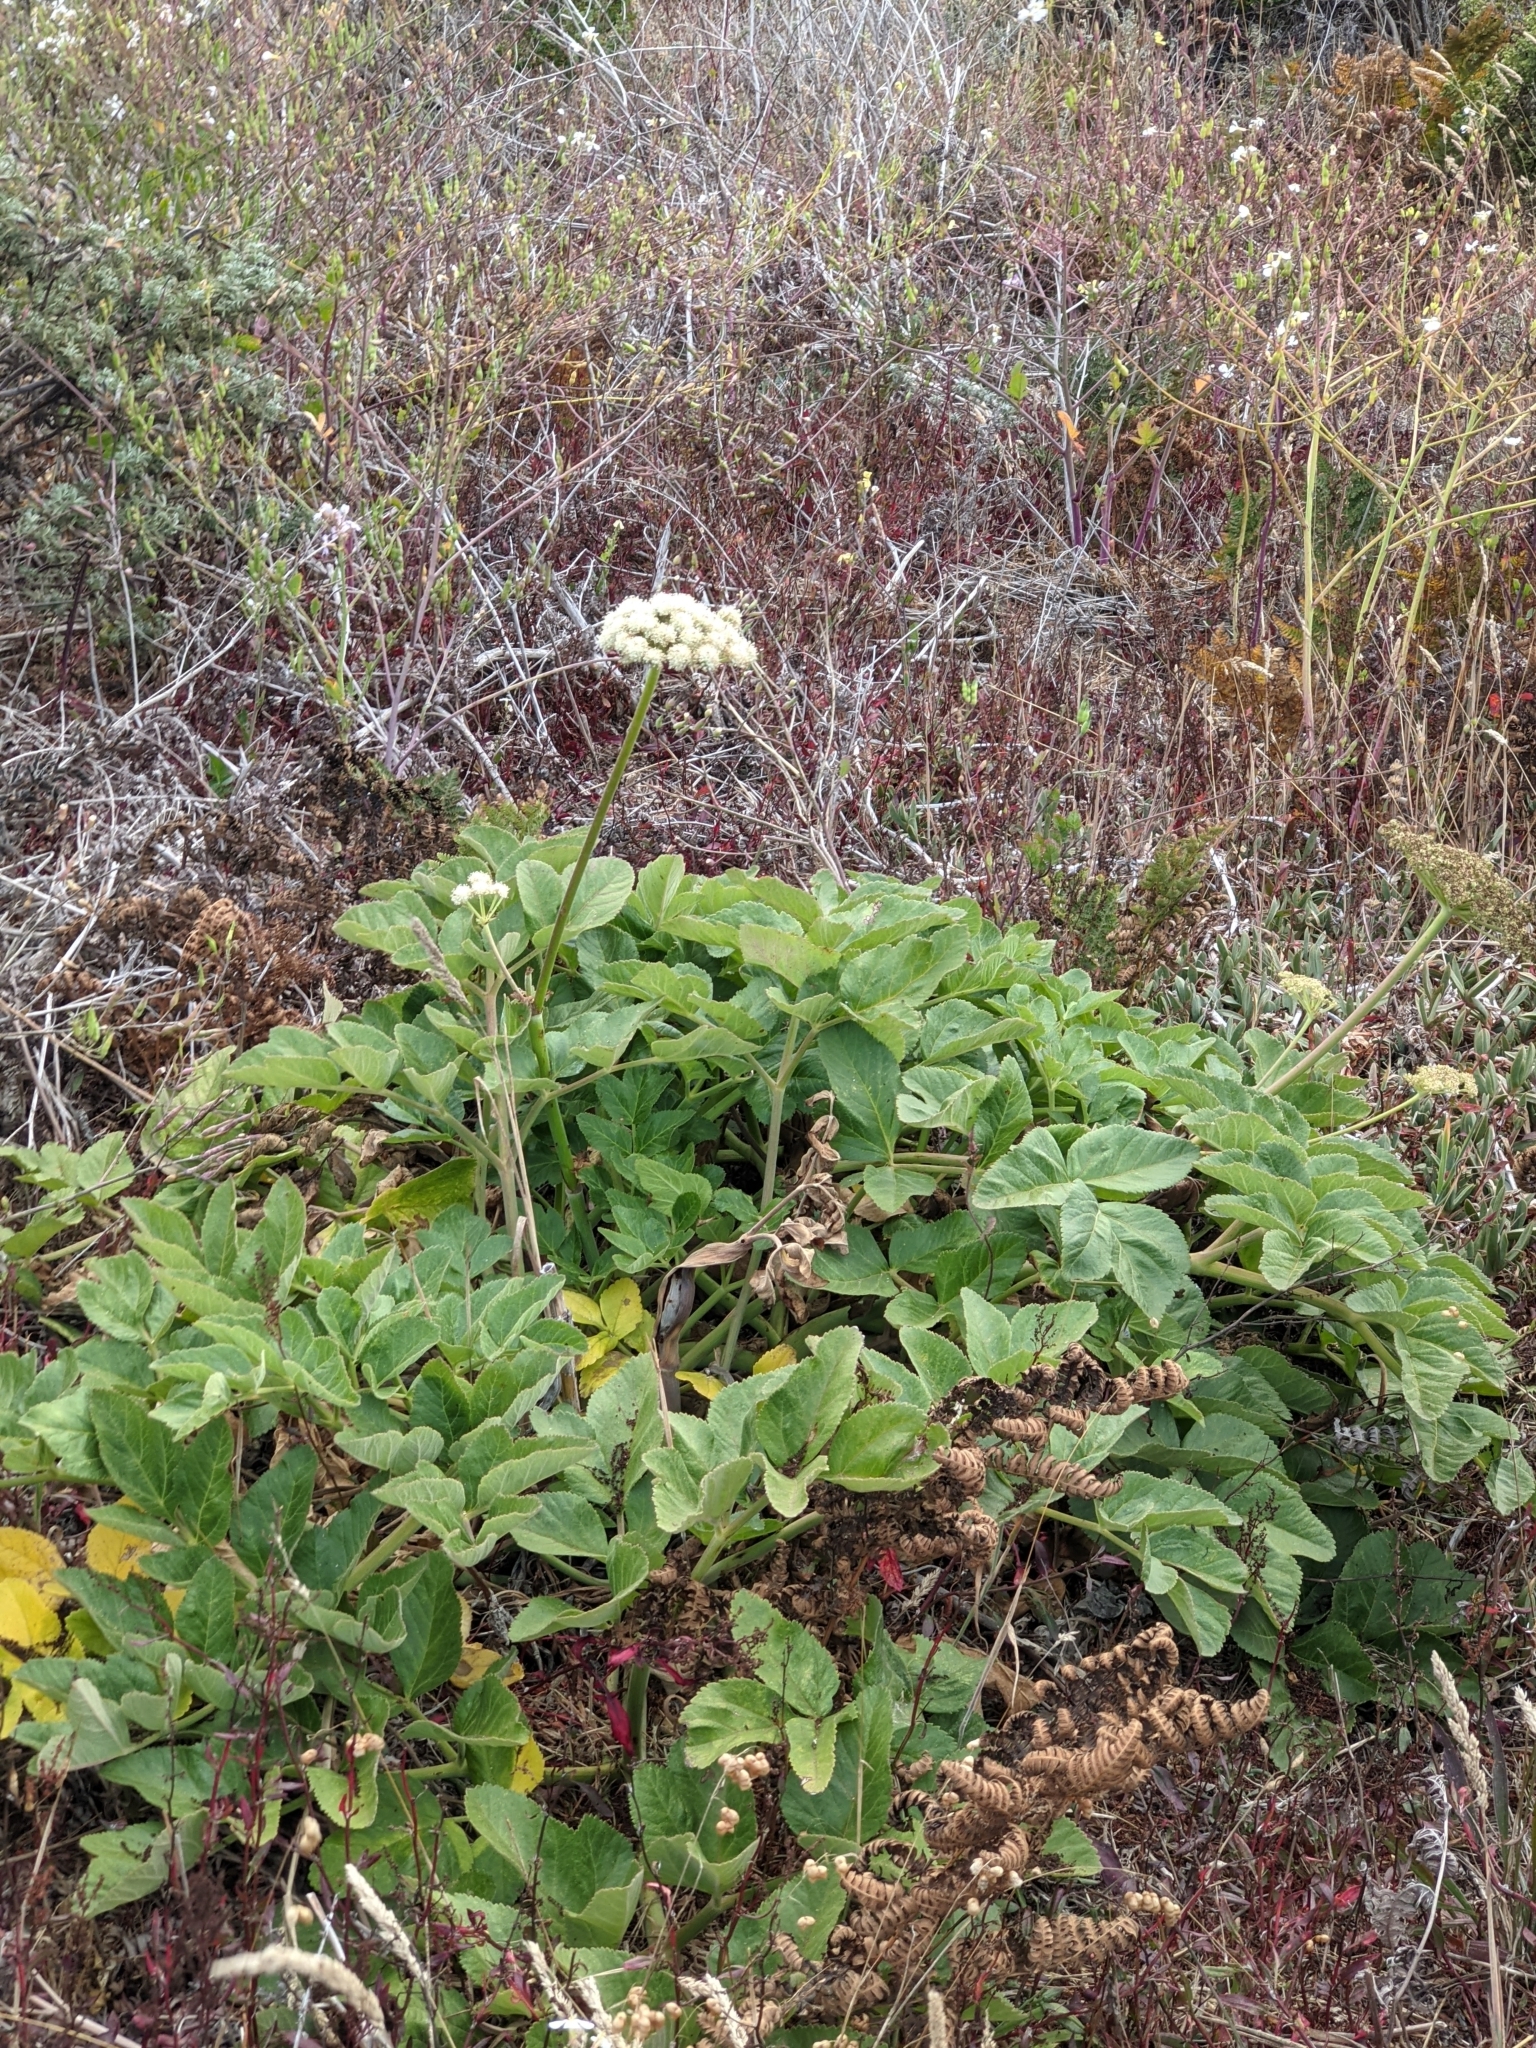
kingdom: Plantae
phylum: Tracheophyta
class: Magnoliopsida
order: Apiales
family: Apiaceae
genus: Angelica
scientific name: Angelica hendersonii
